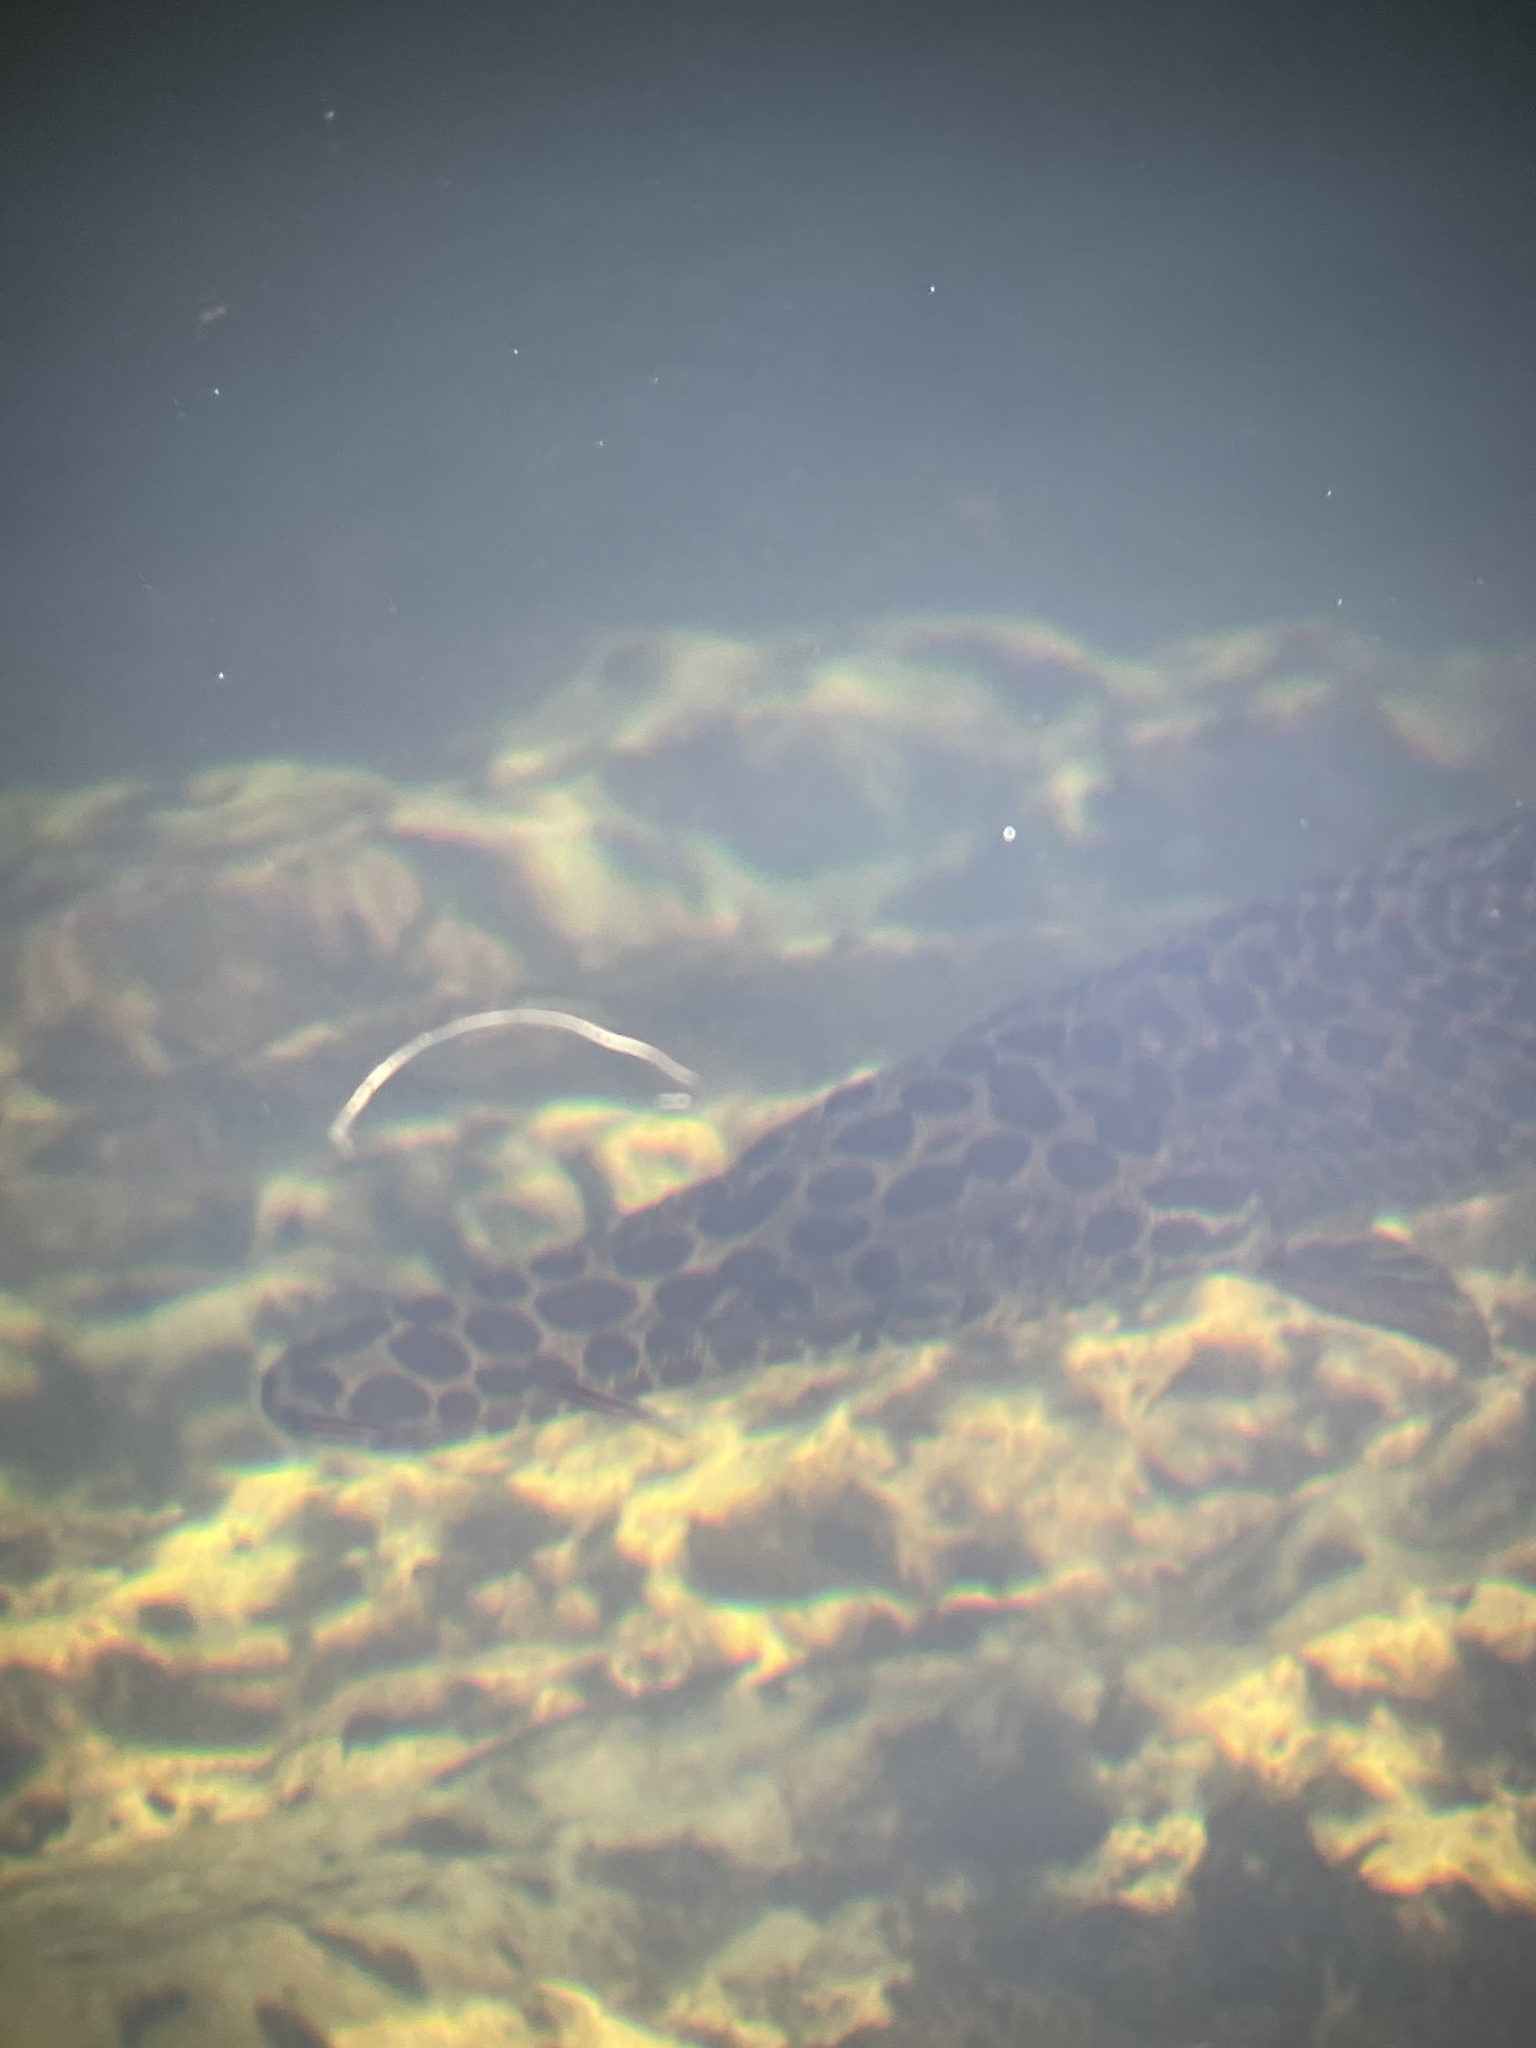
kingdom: Animalia
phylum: Chordata
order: Lepisosteiformes
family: Lepisosteidae
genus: Lepisosteus
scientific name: Lepisosteus platyrhincus
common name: Florida gar
